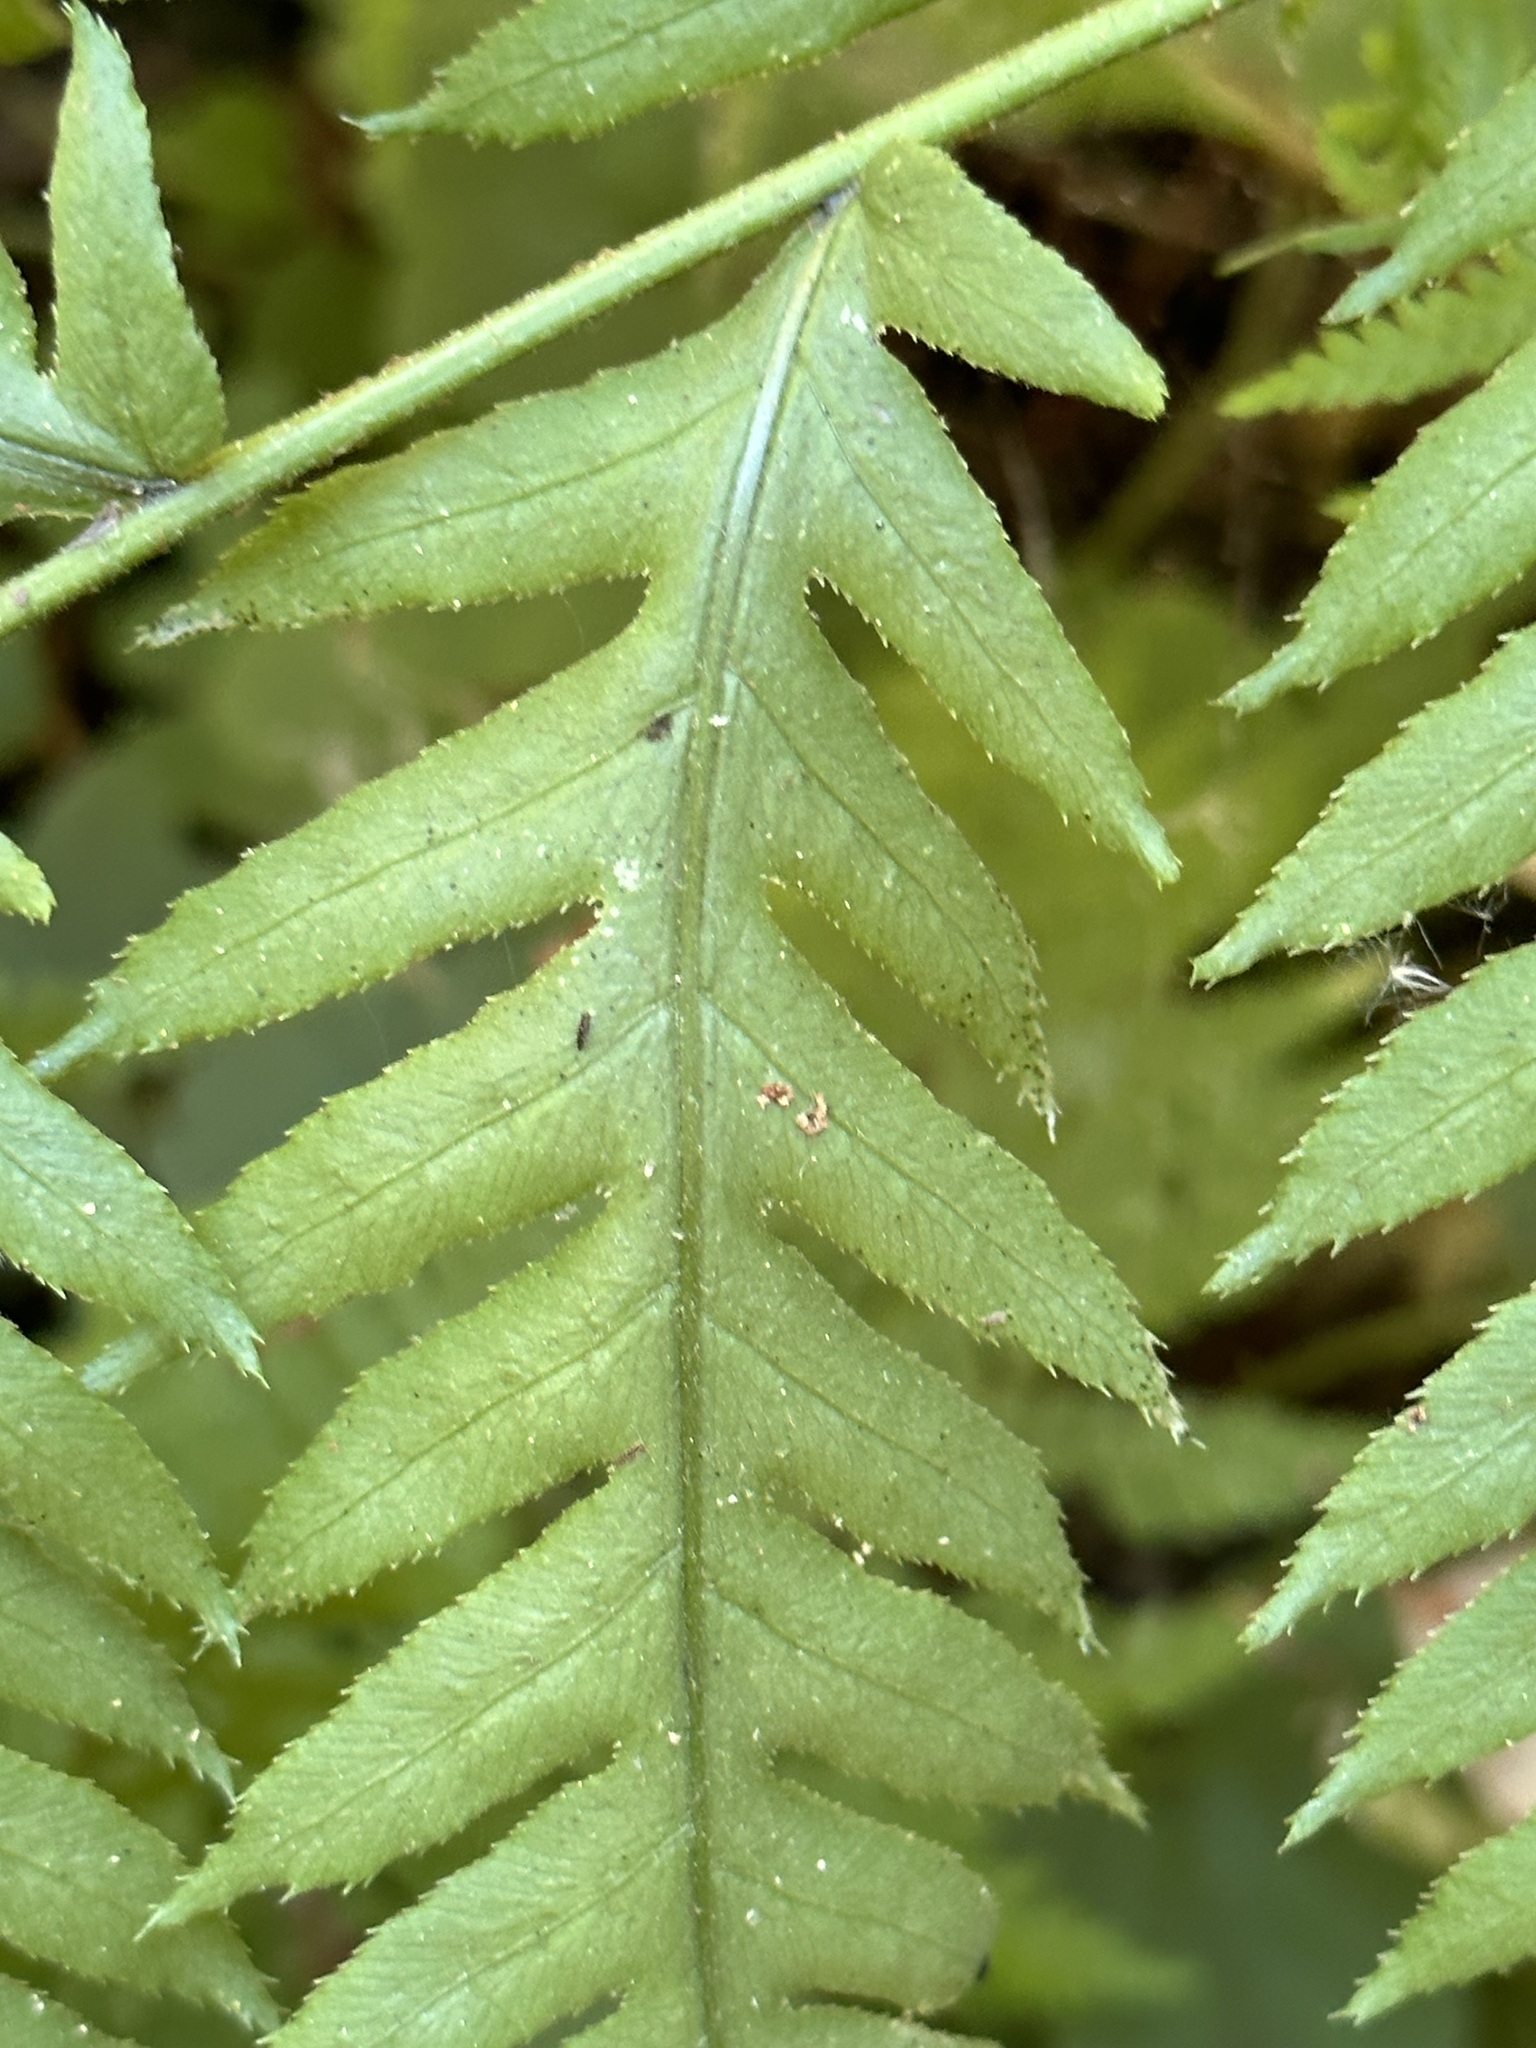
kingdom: Plantae
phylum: Tracheophyta
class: Polypodiopsida
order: Polypodiales
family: Blechnaceae
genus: Woodwardia
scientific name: Woodwardia fimbriata
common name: Giant chain fern
